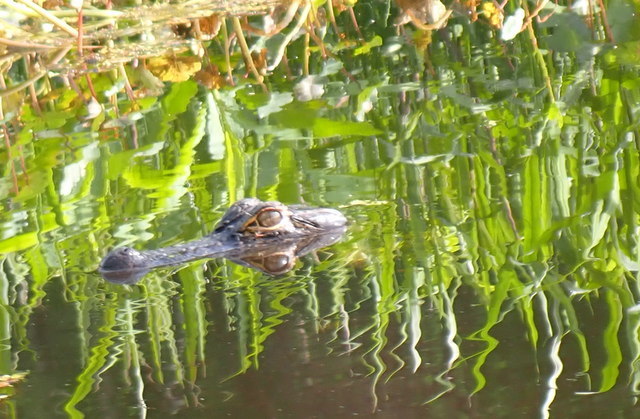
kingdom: Animalia
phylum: Chordata
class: Crocodylia
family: Alligatoridae
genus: Alligator
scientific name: Alligator mississippiensis
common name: American alligator
